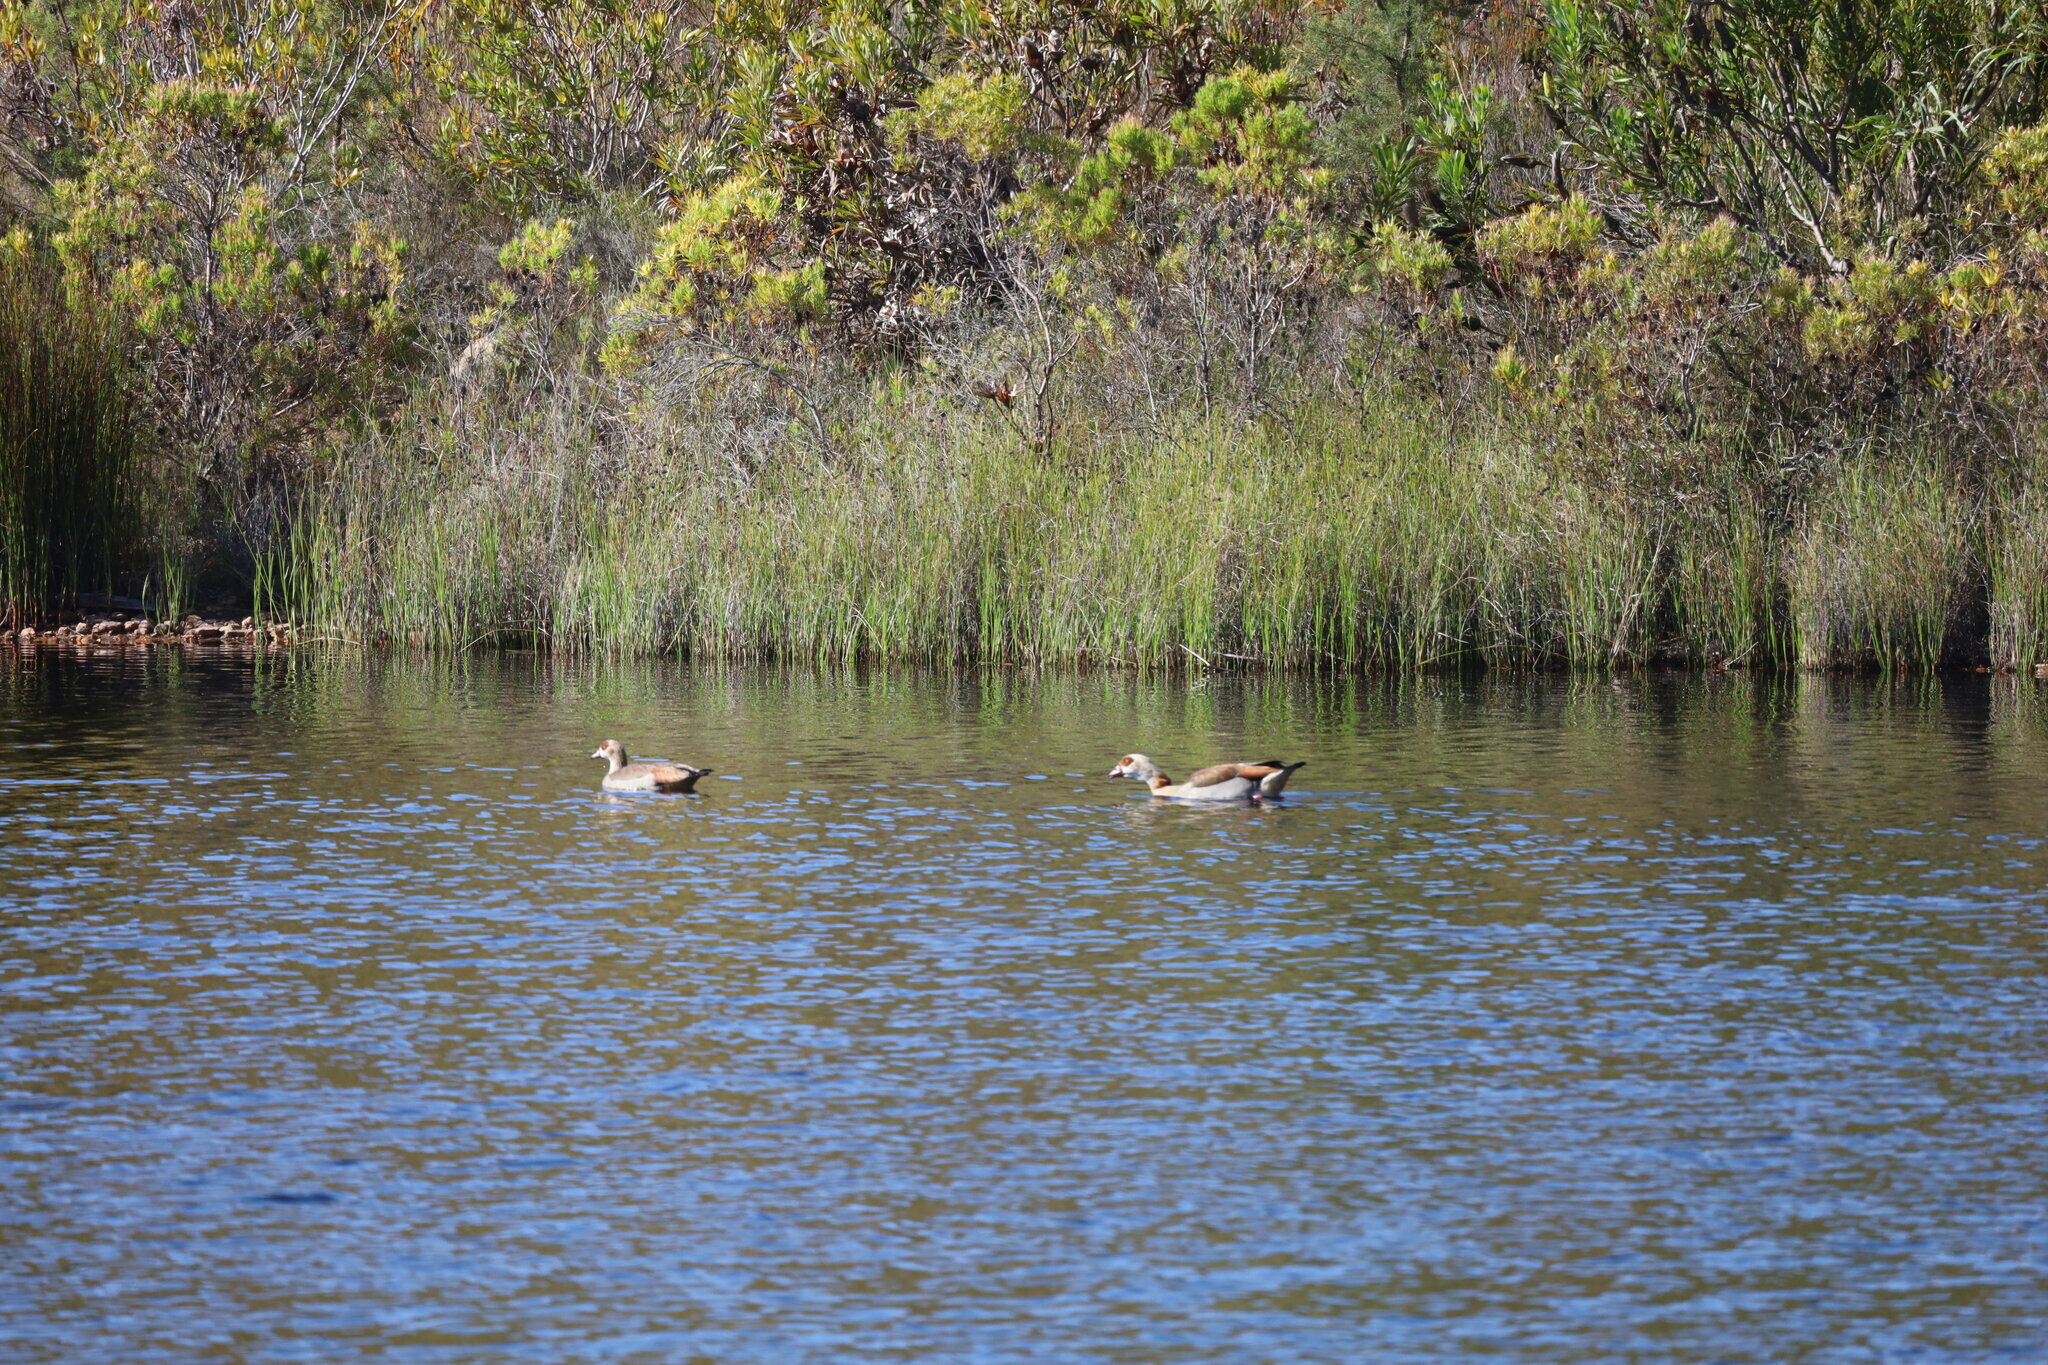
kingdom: Animalia
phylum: Chordata
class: Aves
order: Anseriformes
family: Anatidae
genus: Alopochen
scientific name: Alopochen aegyptiaca
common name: Egyptian goose
